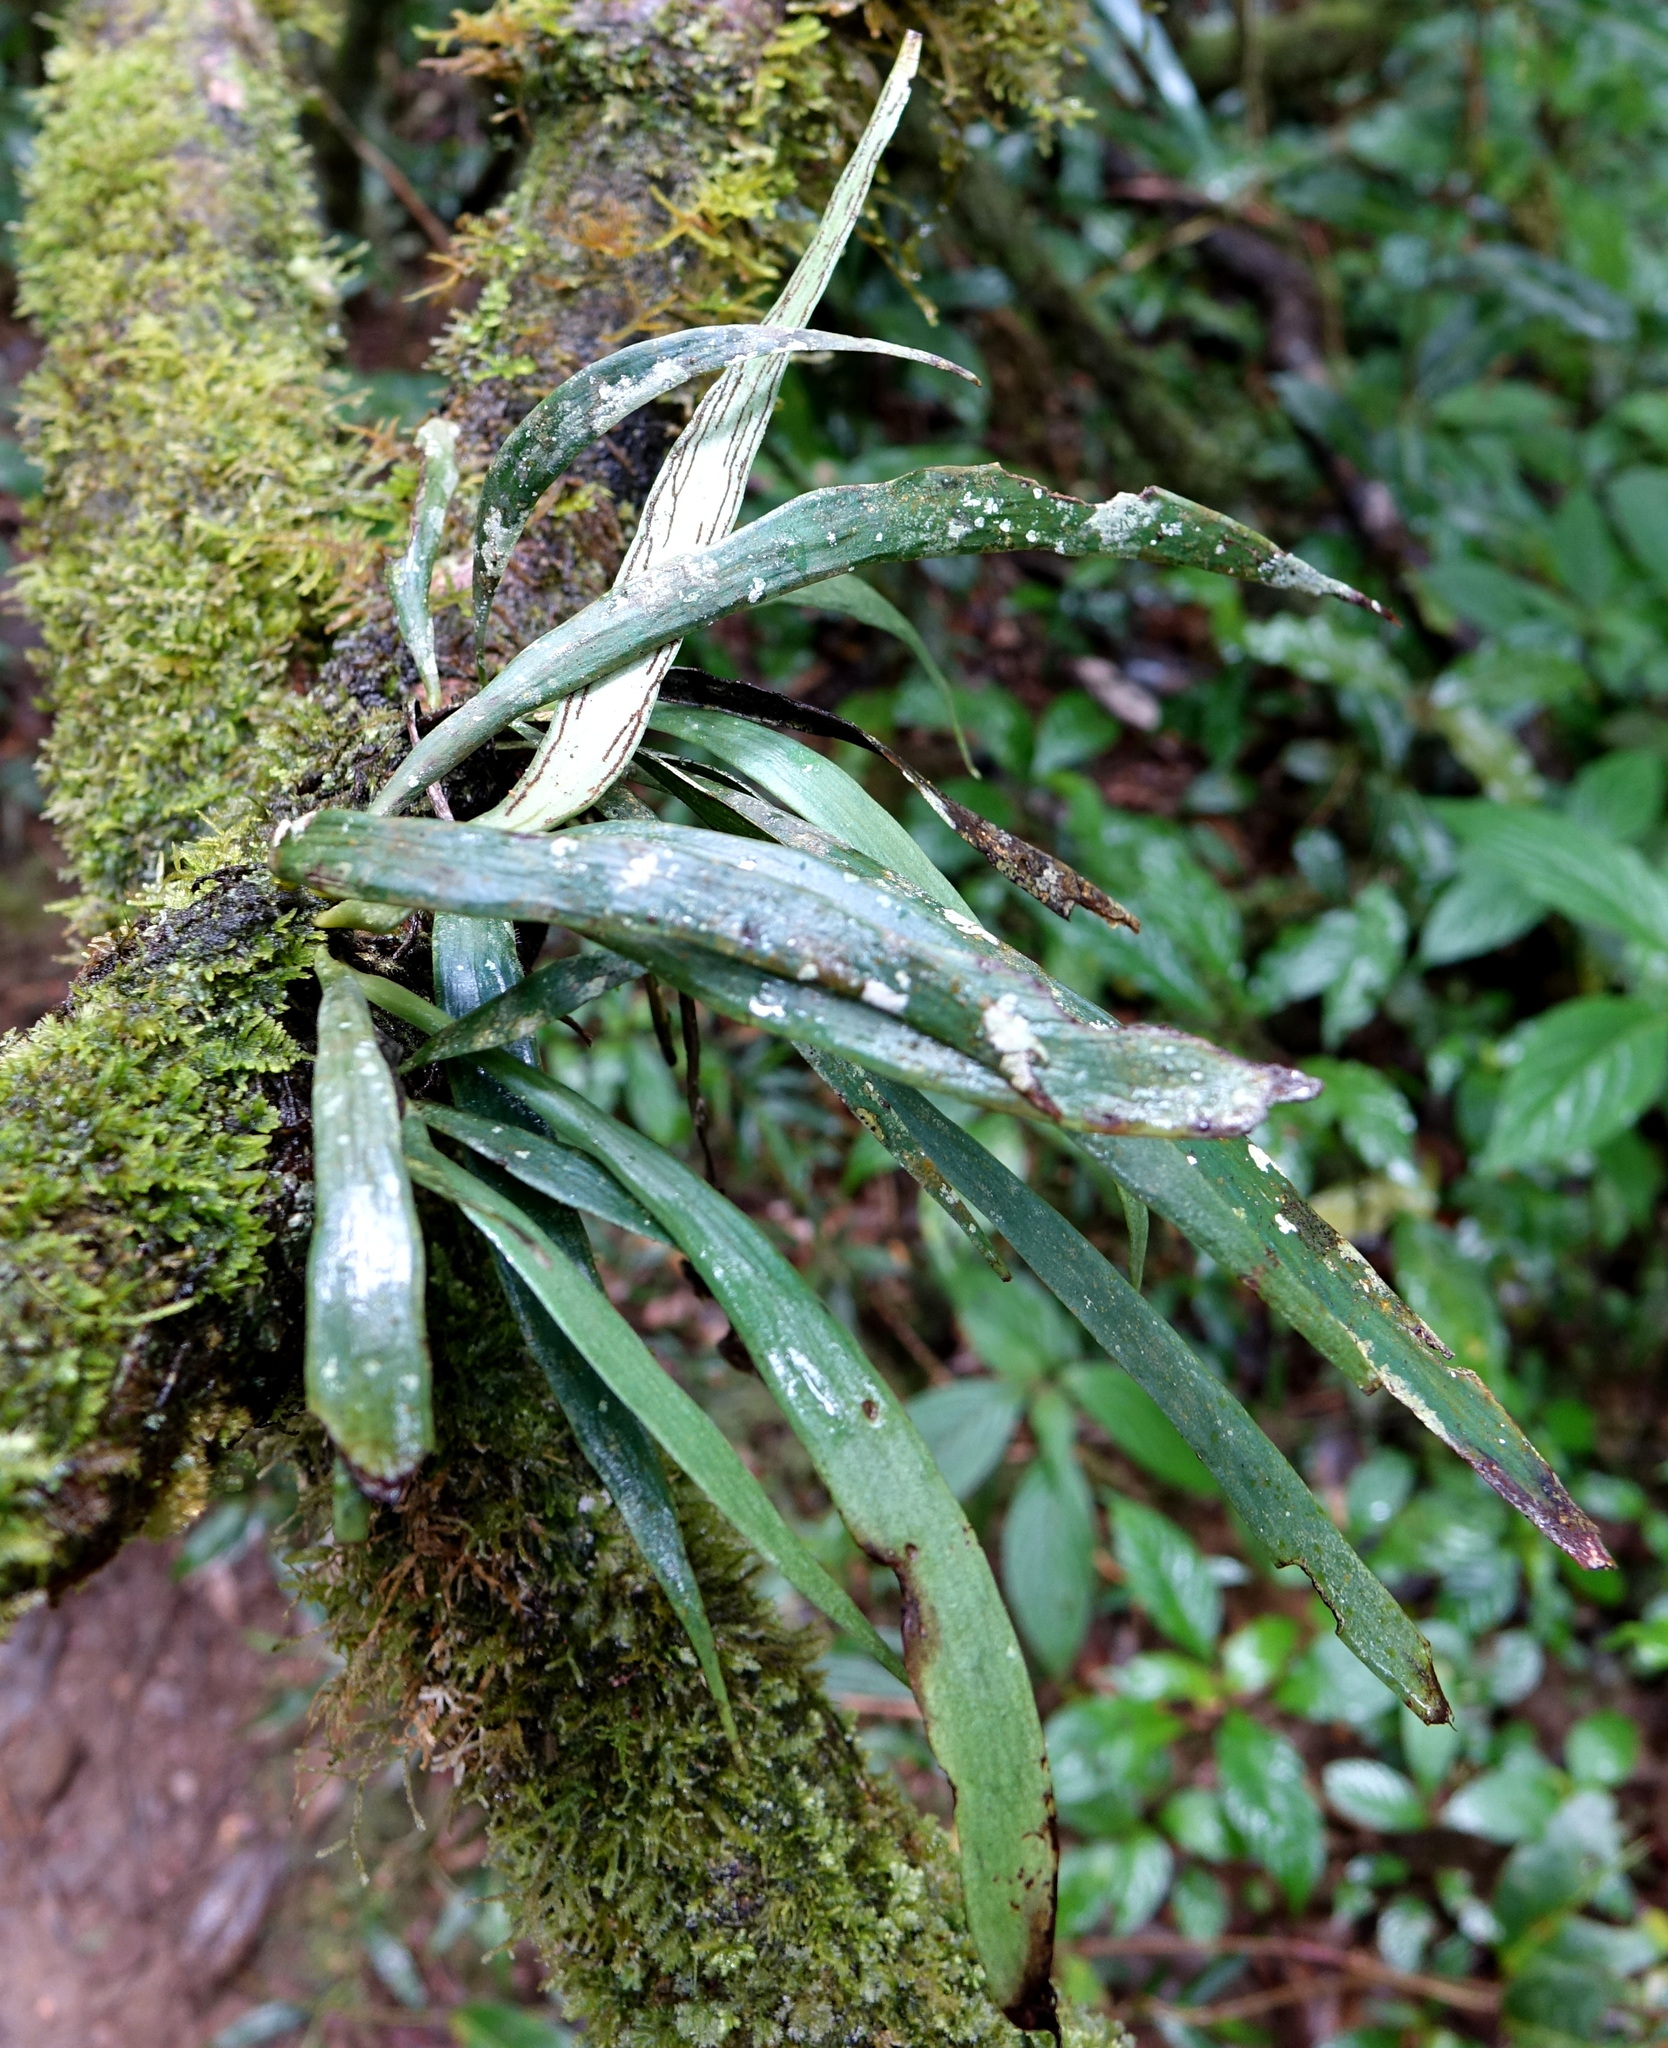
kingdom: Plantae
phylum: Tracheophyta
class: Polypodiopsida
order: Polypodiales
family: Pteridaceae
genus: Antrophyum
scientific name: Antrophyum malgassicum
